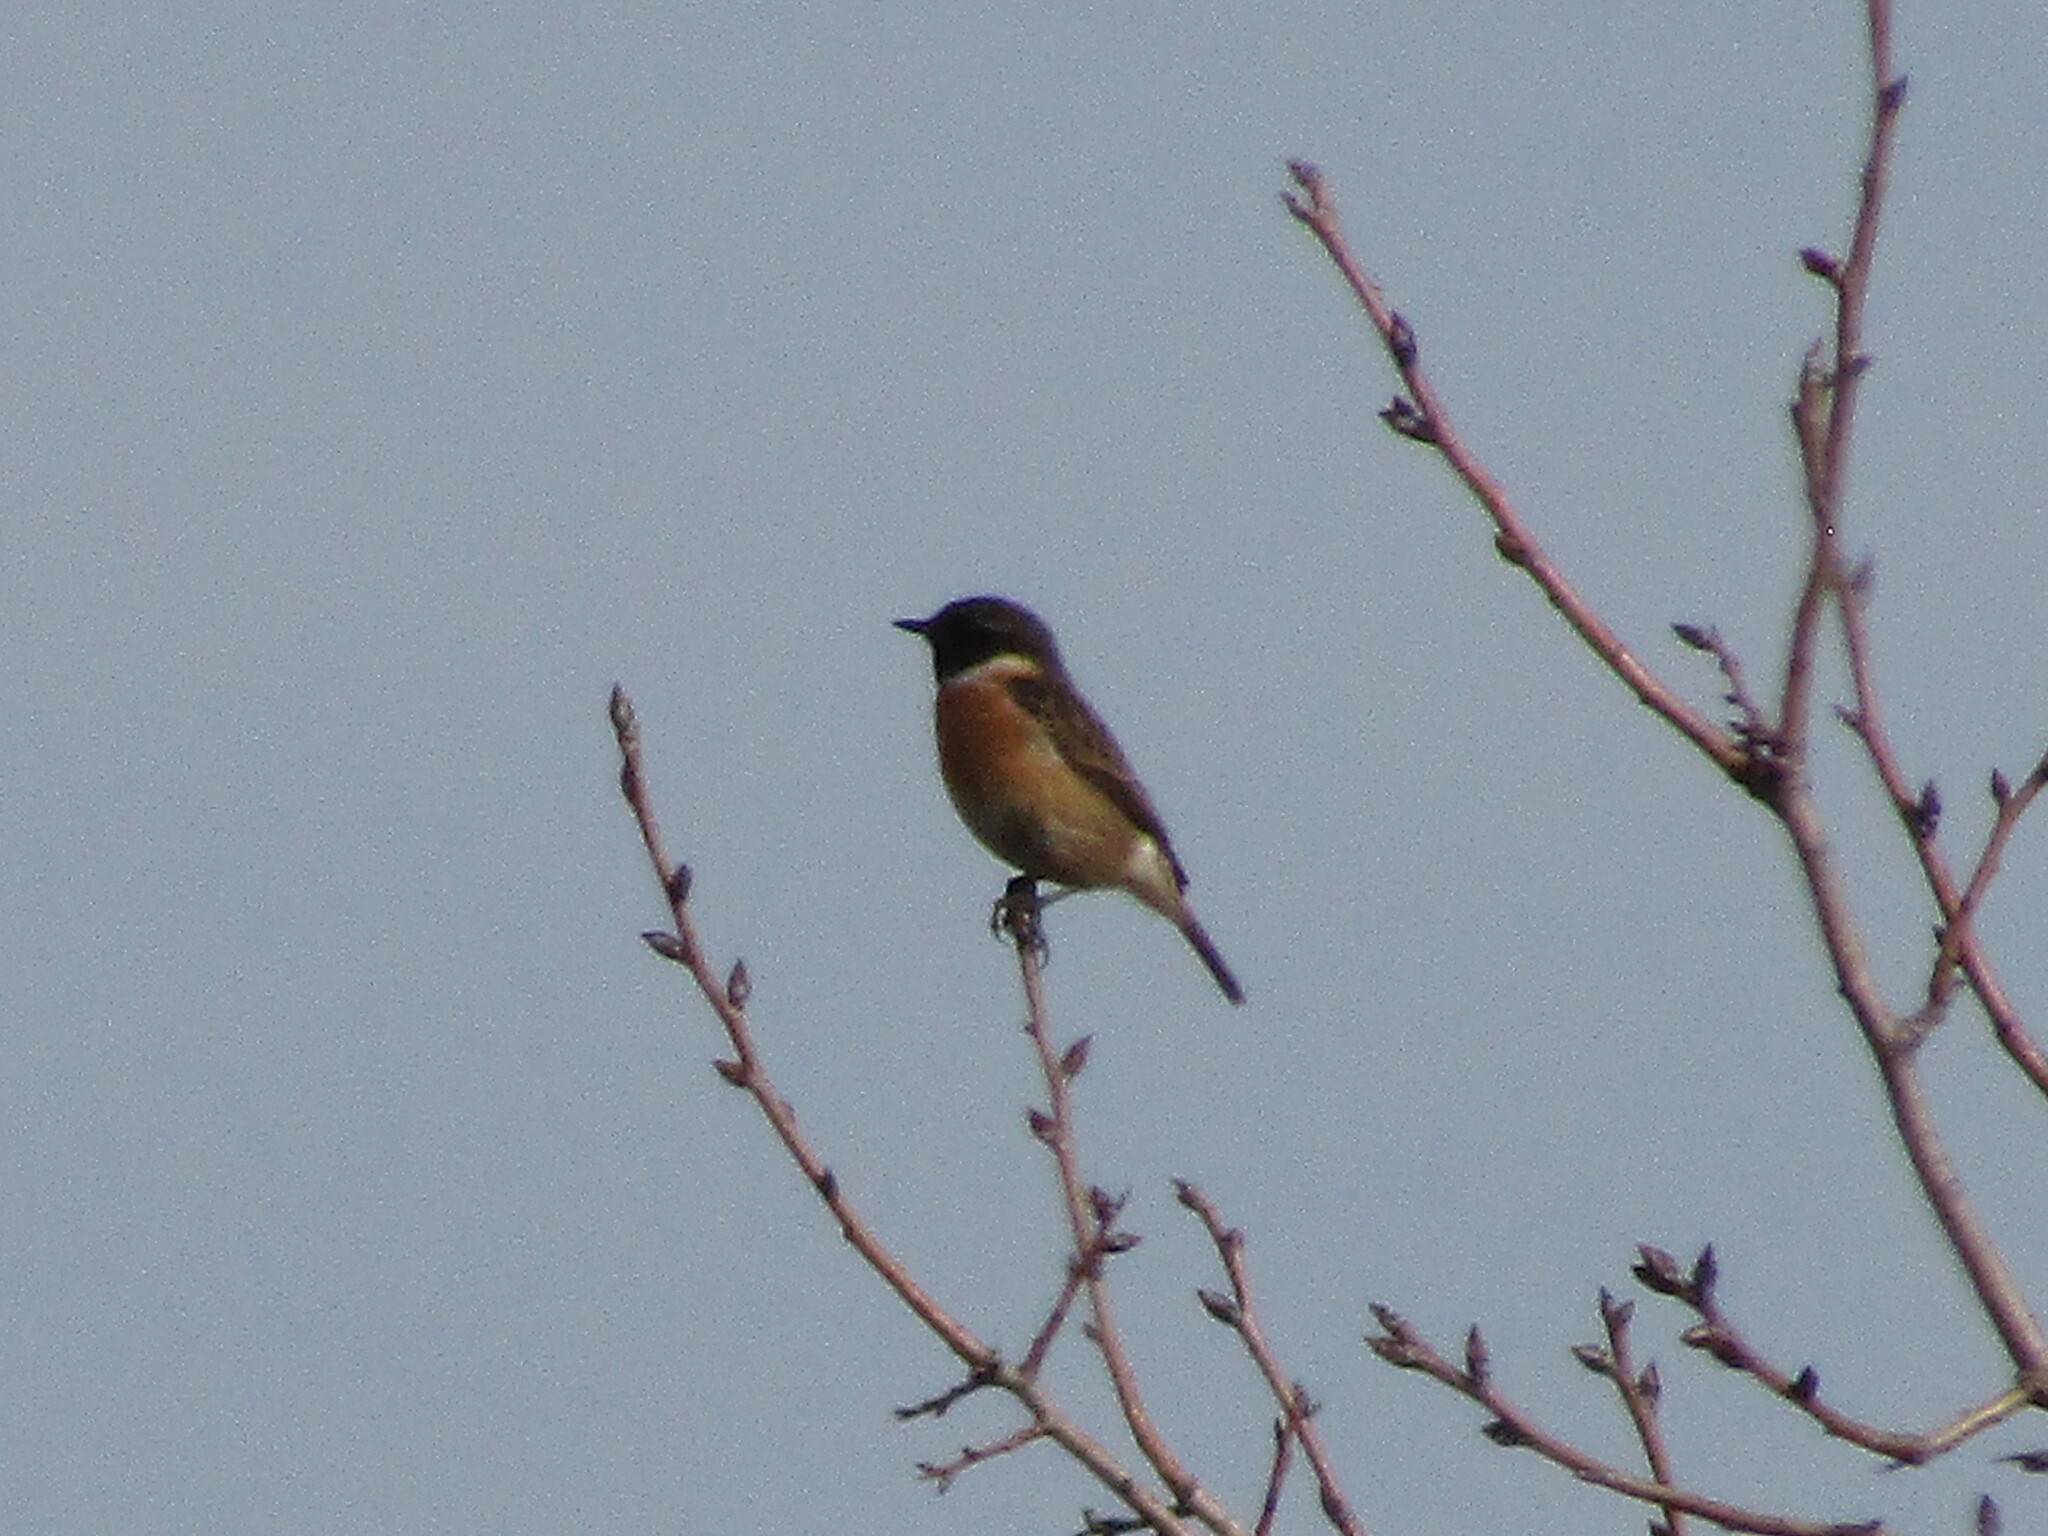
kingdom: Animalia
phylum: Chordata
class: Aves
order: Passeriformes
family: Muscicapidae
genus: Saxicola
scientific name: Saxicola rubicola
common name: European stonechat
